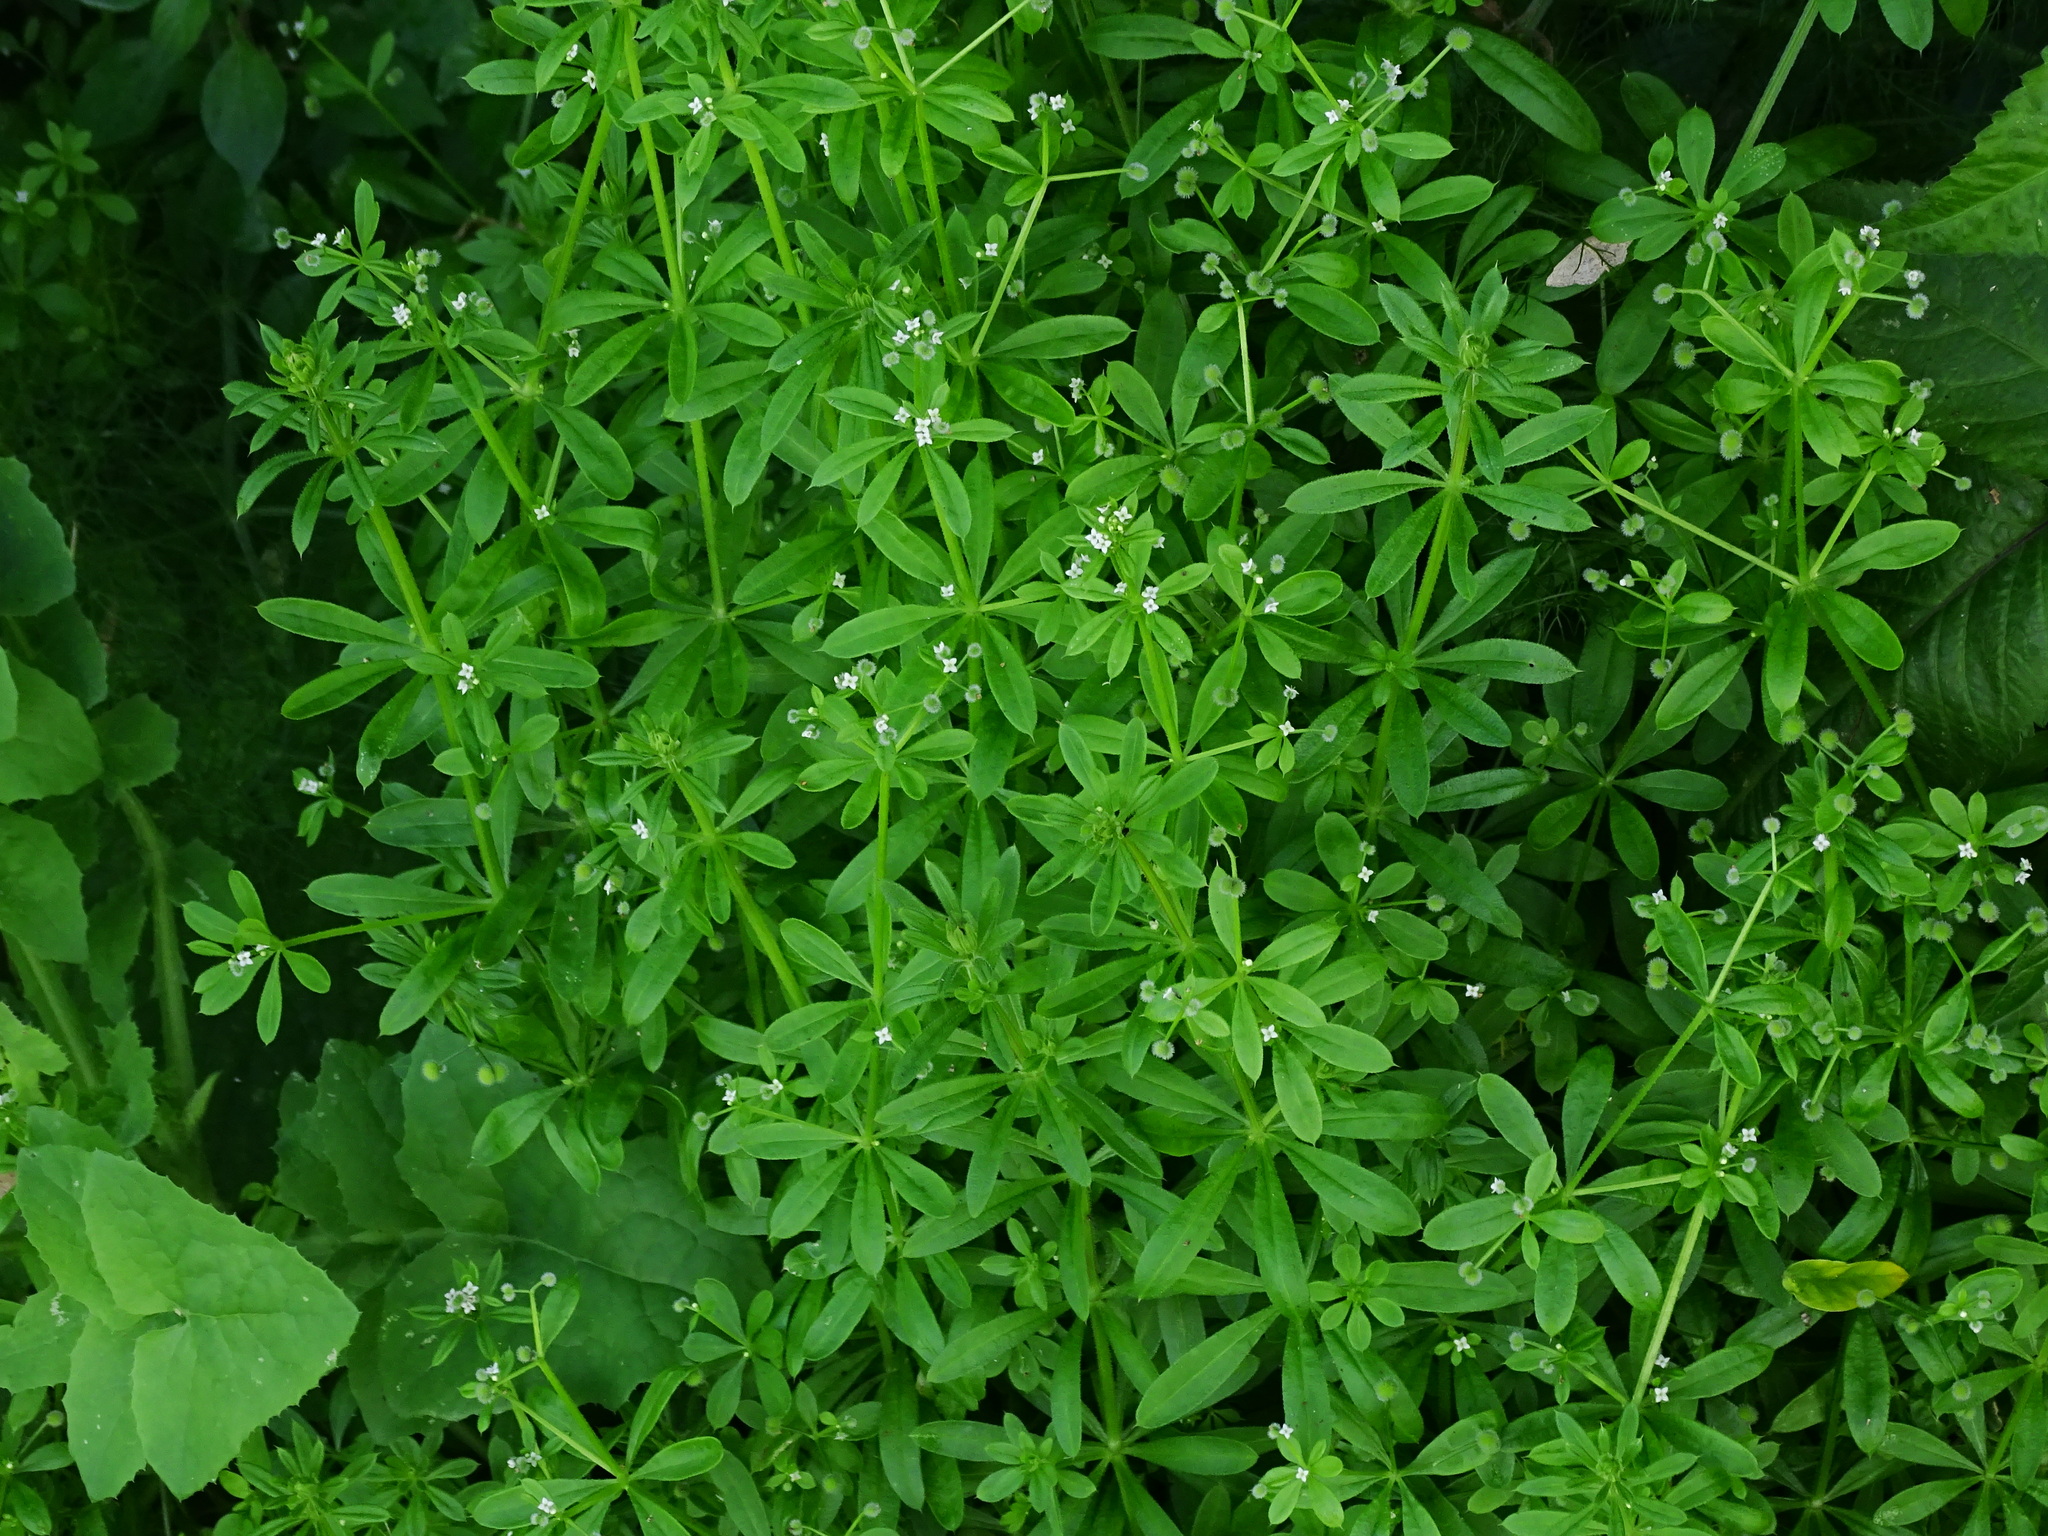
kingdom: Plantae
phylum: Tracheophyta
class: Magnoliopsida
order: Gentianales
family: Rubiaceae
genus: Galium
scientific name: Galium aparine
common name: Cleavers
